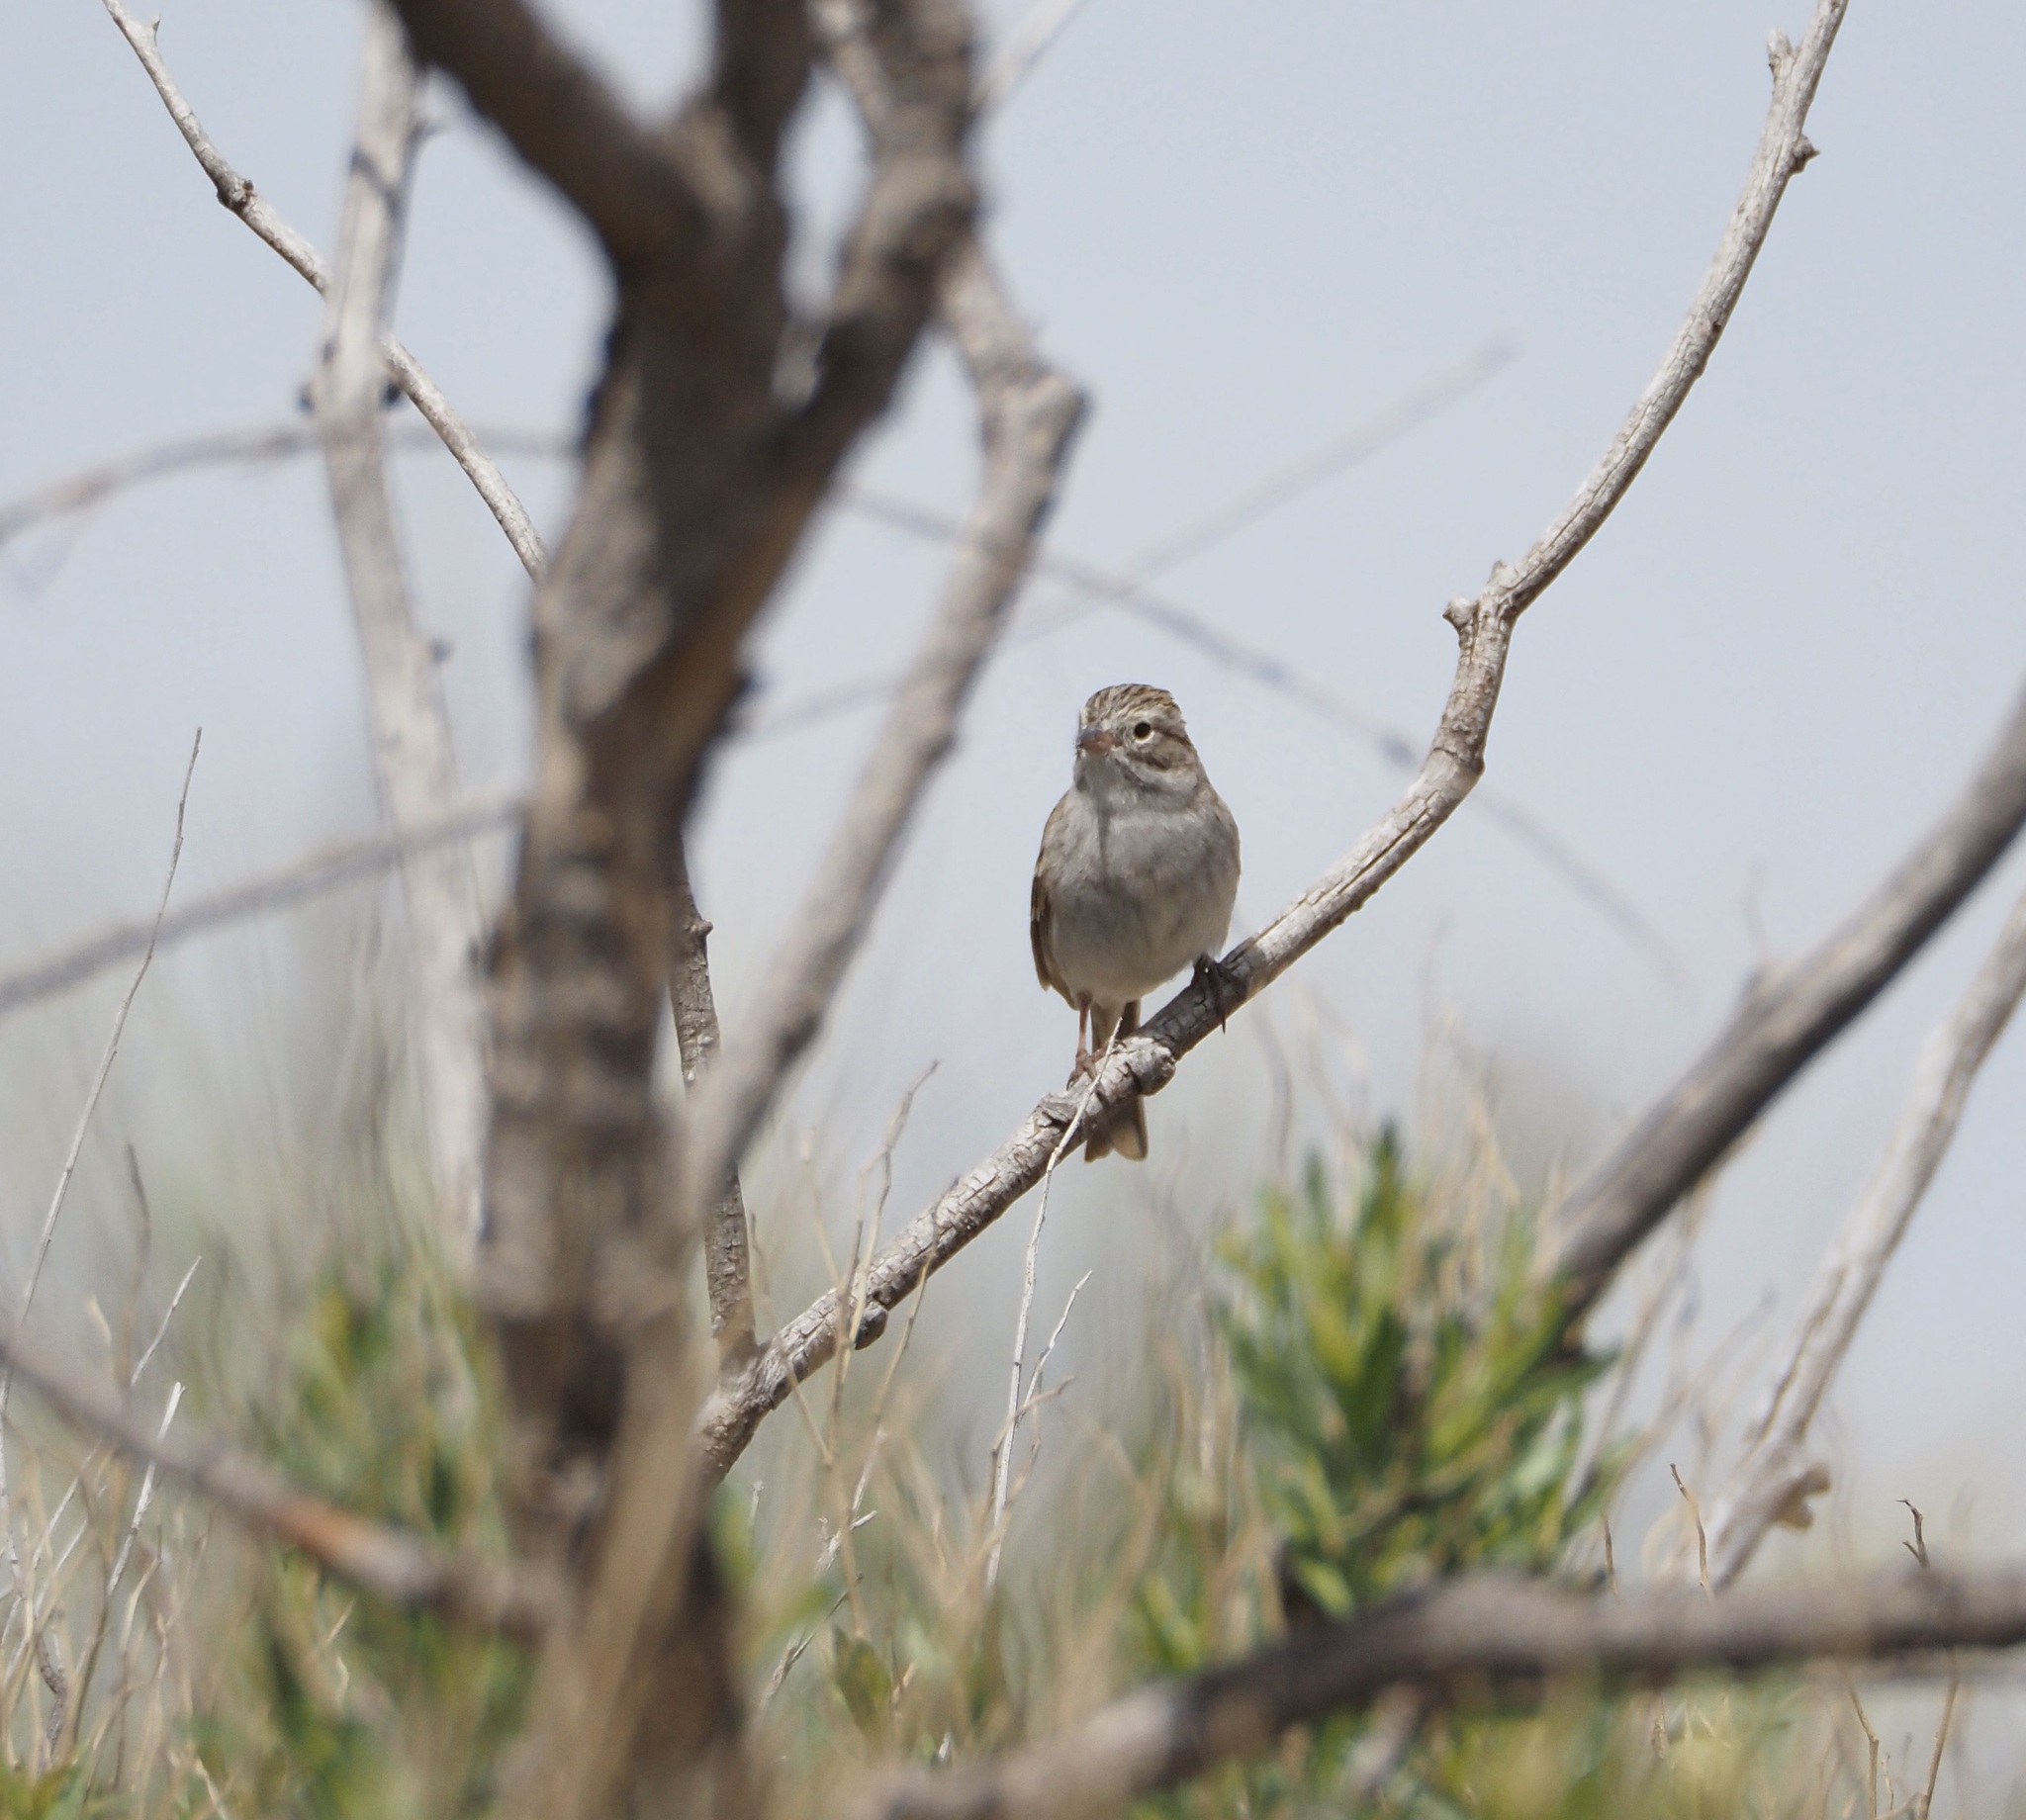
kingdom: Animalia
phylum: Chordata
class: Aves
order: Passeriformes
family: Passerellidae
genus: Spizella
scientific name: Spizella breweri
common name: Brewer's sparrow
